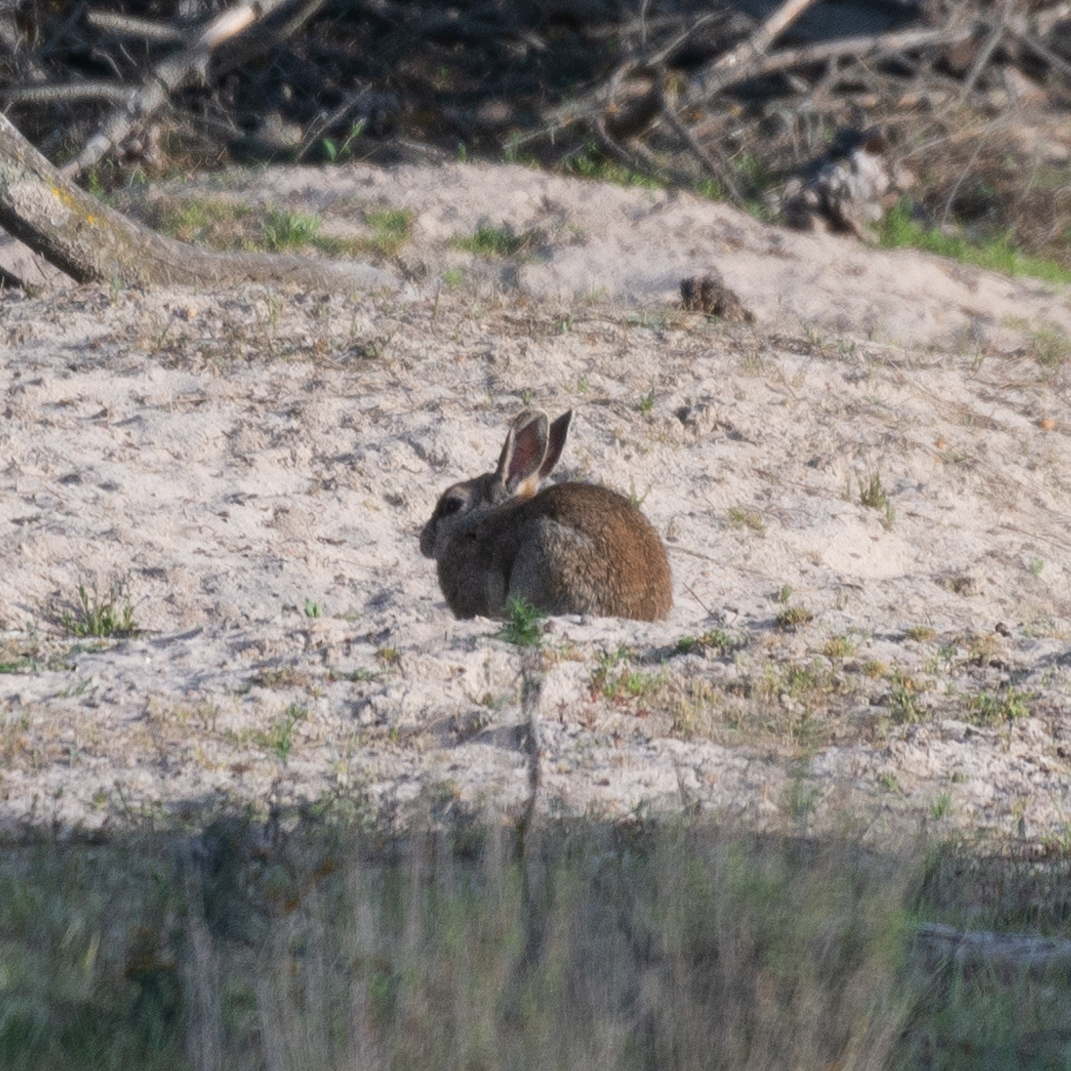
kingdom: Animalia
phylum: Chordata
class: Mammalia
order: Lagomorpha
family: Leporidae
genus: Oryctolagus
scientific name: Oryctolagus cuniculus
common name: European rabbit
